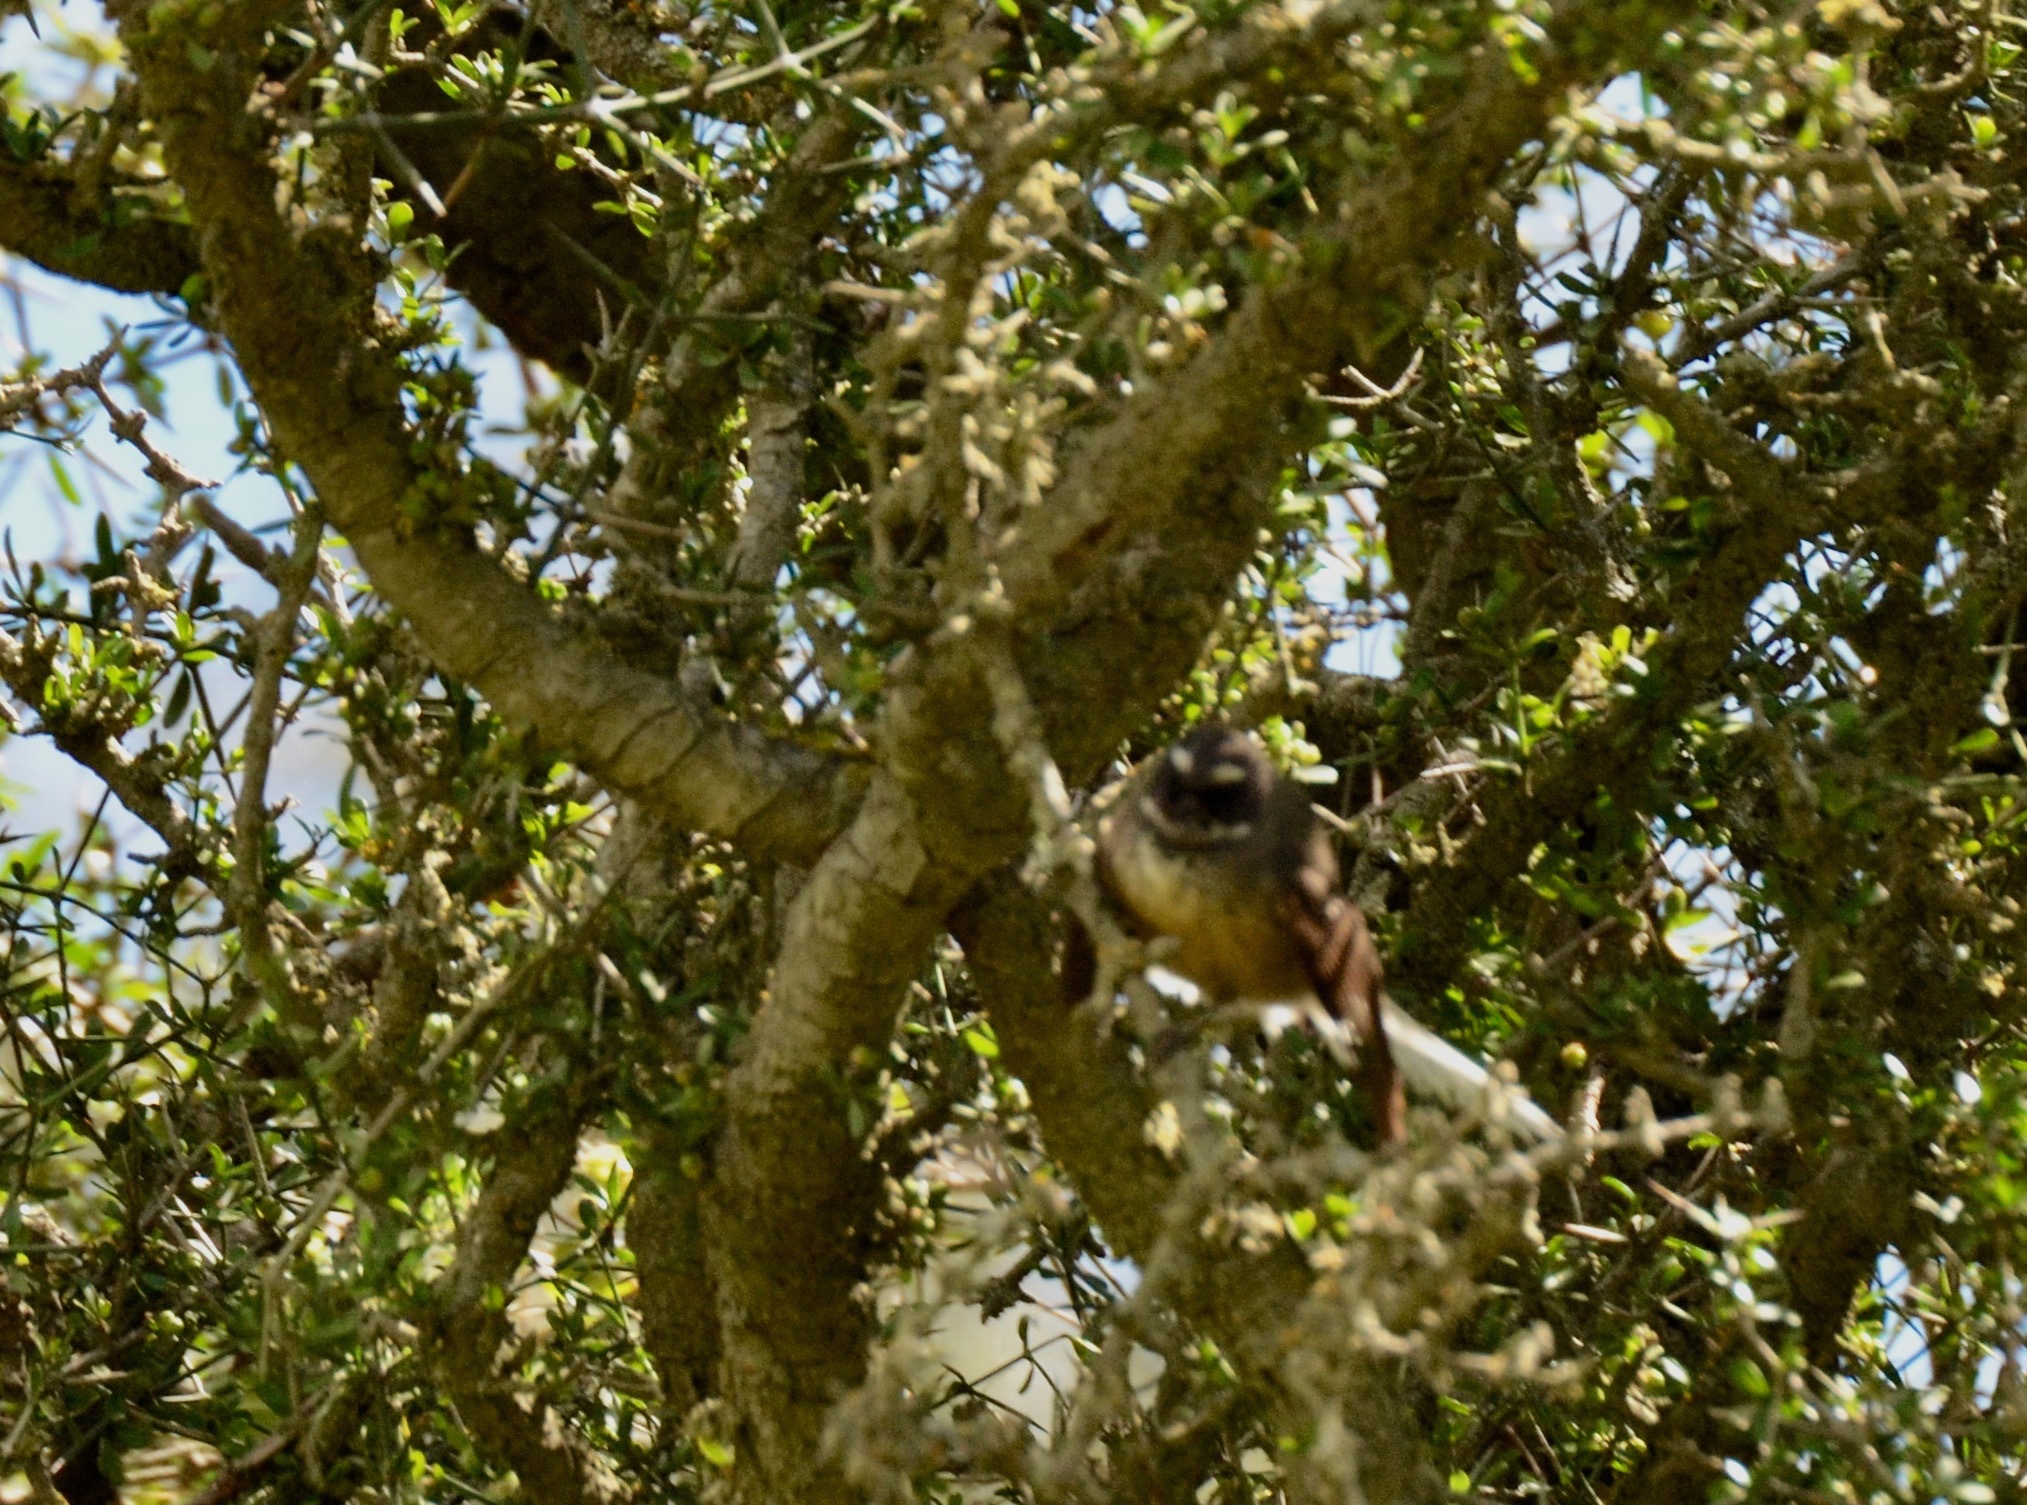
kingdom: Animalia
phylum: Chordata
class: Aves
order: Passeriformes
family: Rhipiduridae
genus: Rhipidura
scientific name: Rhipidura fuliginosa
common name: New zealand fantail
